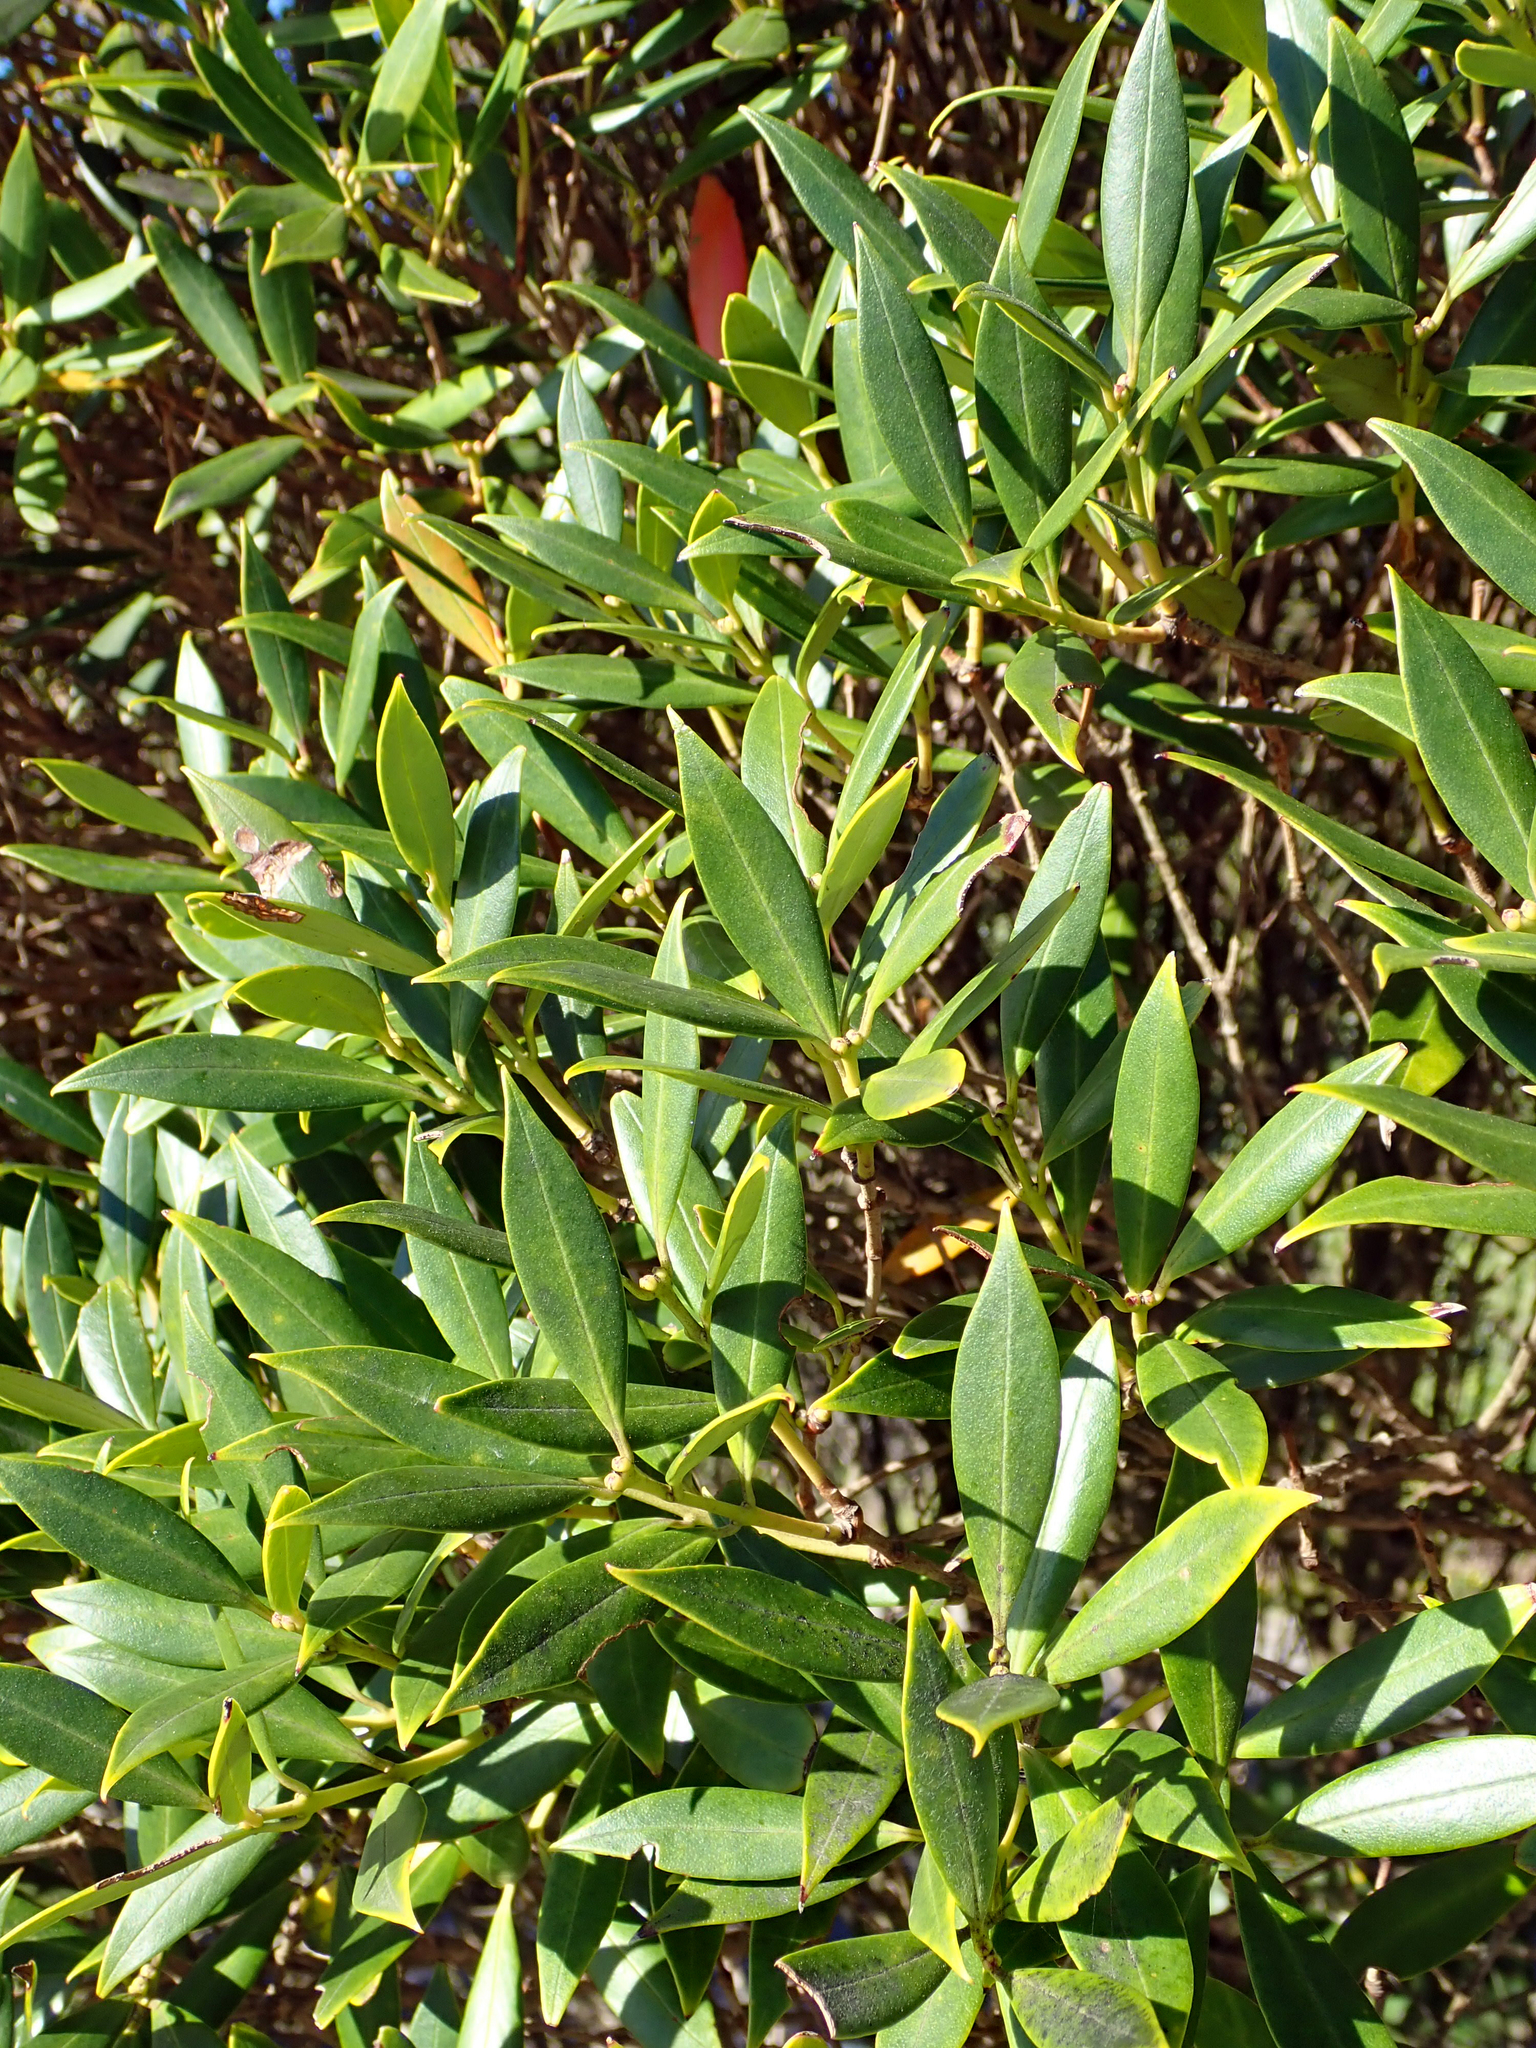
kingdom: Plantae
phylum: Tracheophyta
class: Magnoliopsida
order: Myrtales
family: Myrtaceae
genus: Metrosideros
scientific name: Metrosideros umbellata
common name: Southern rata
